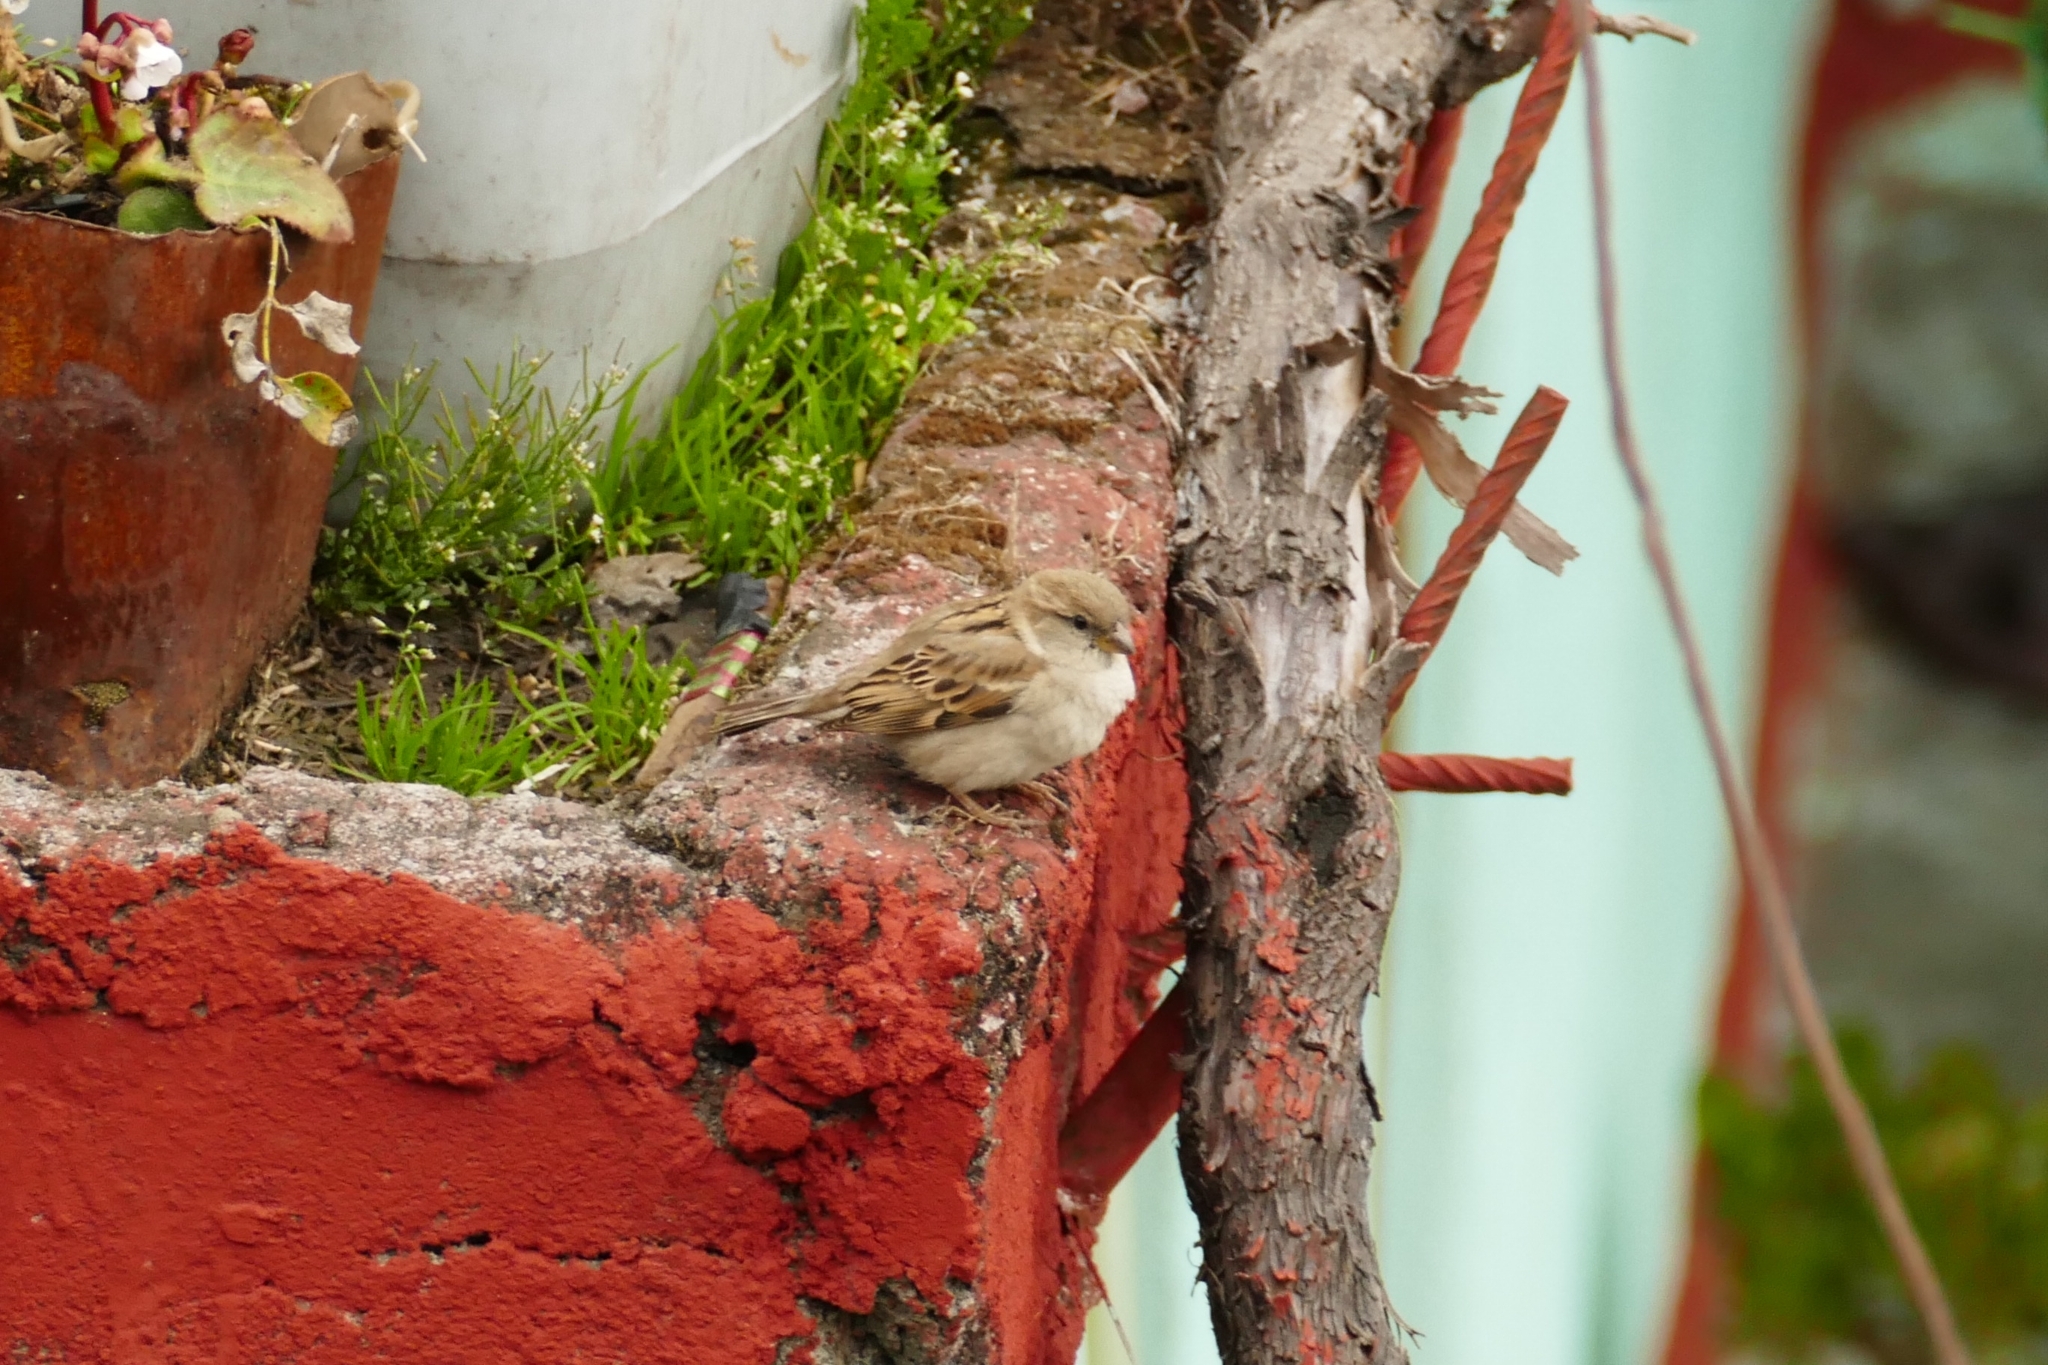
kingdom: Animalia
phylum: Chordata
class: Aves
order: Passeriformes
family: Passeridae
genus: Passer
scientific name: Passer domesticus
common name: House sparrow
